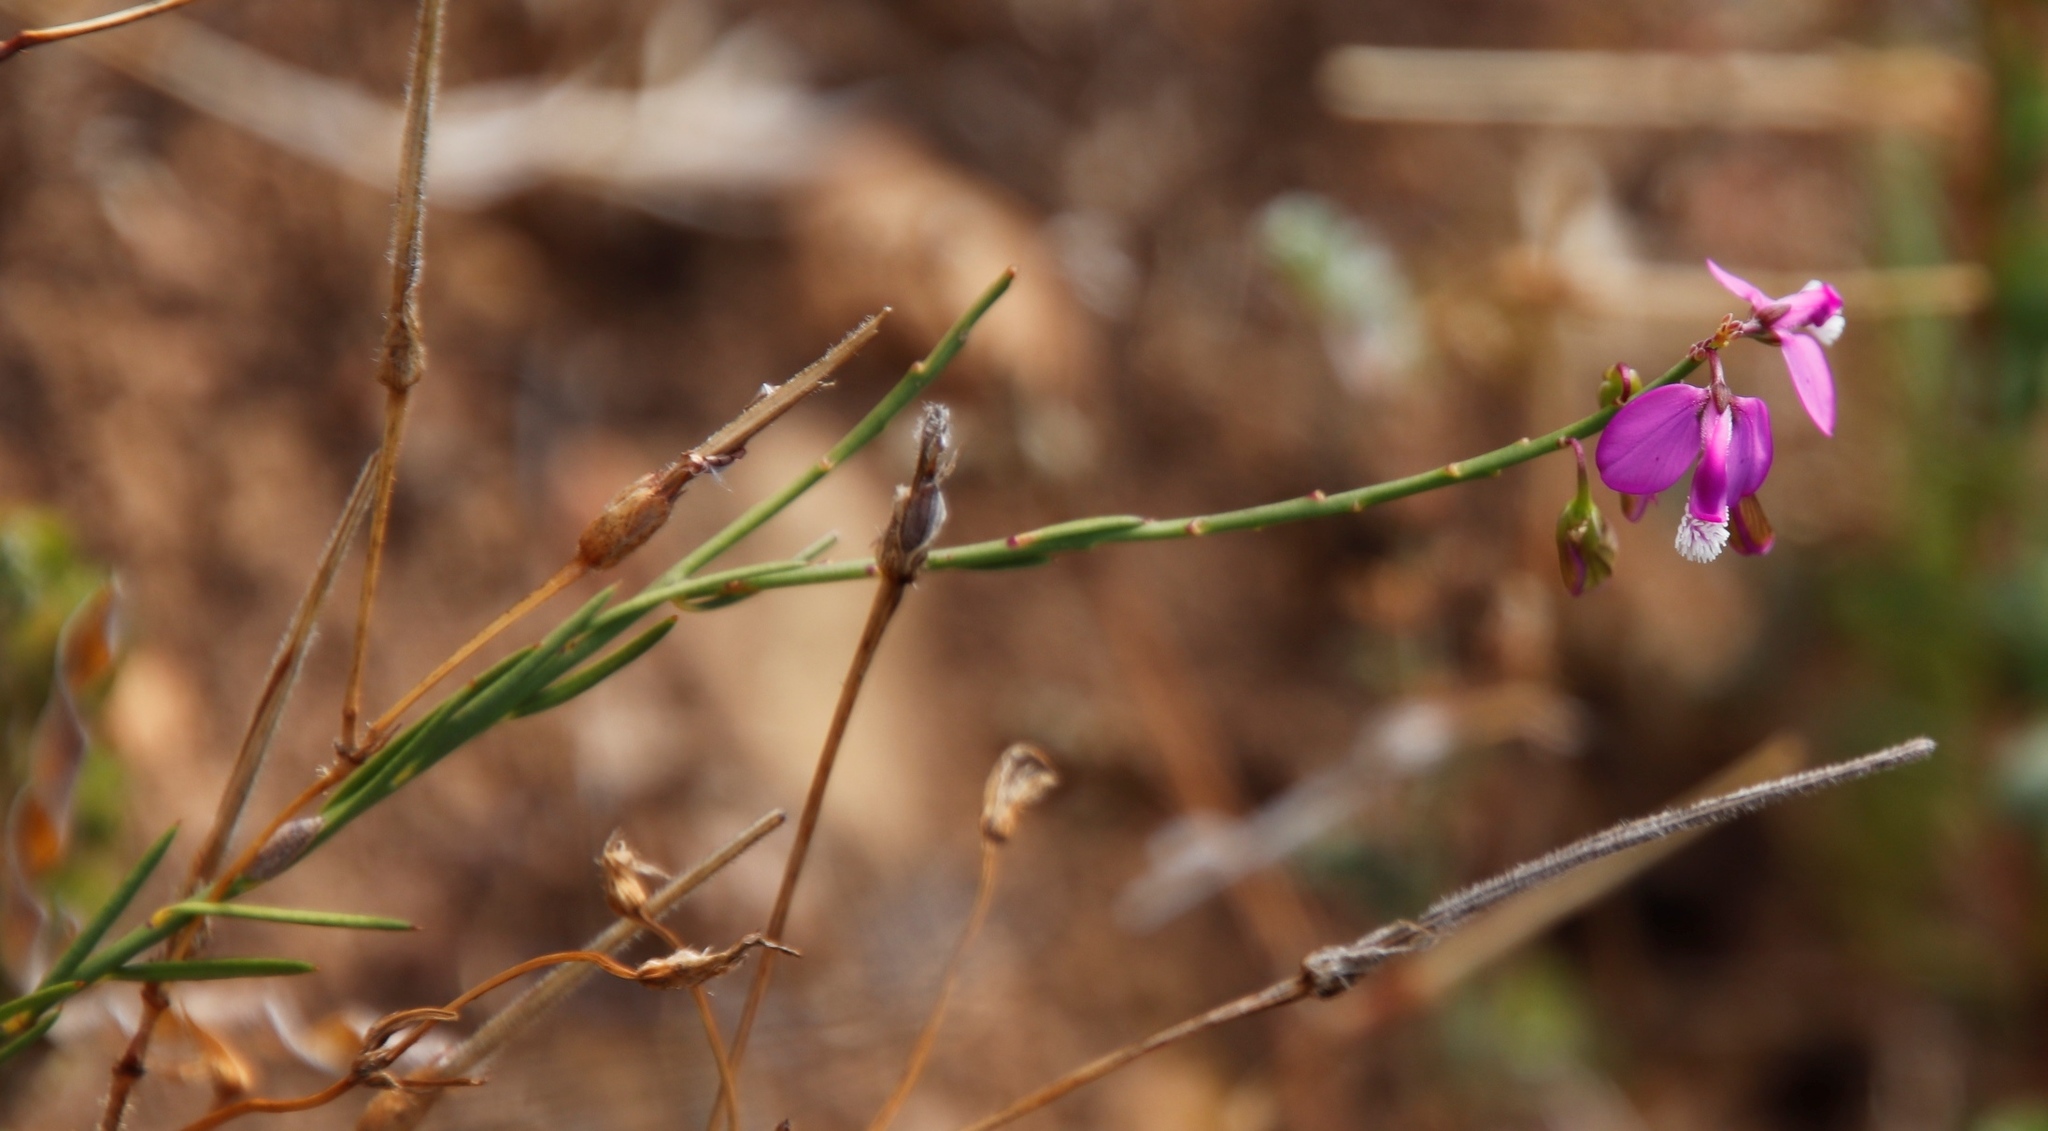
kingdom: Plantae
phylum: Tracheophyta
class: Magnoliopsida
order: Fabales
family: Polygalaceae
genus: Polygala
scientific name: Polygala garcini
